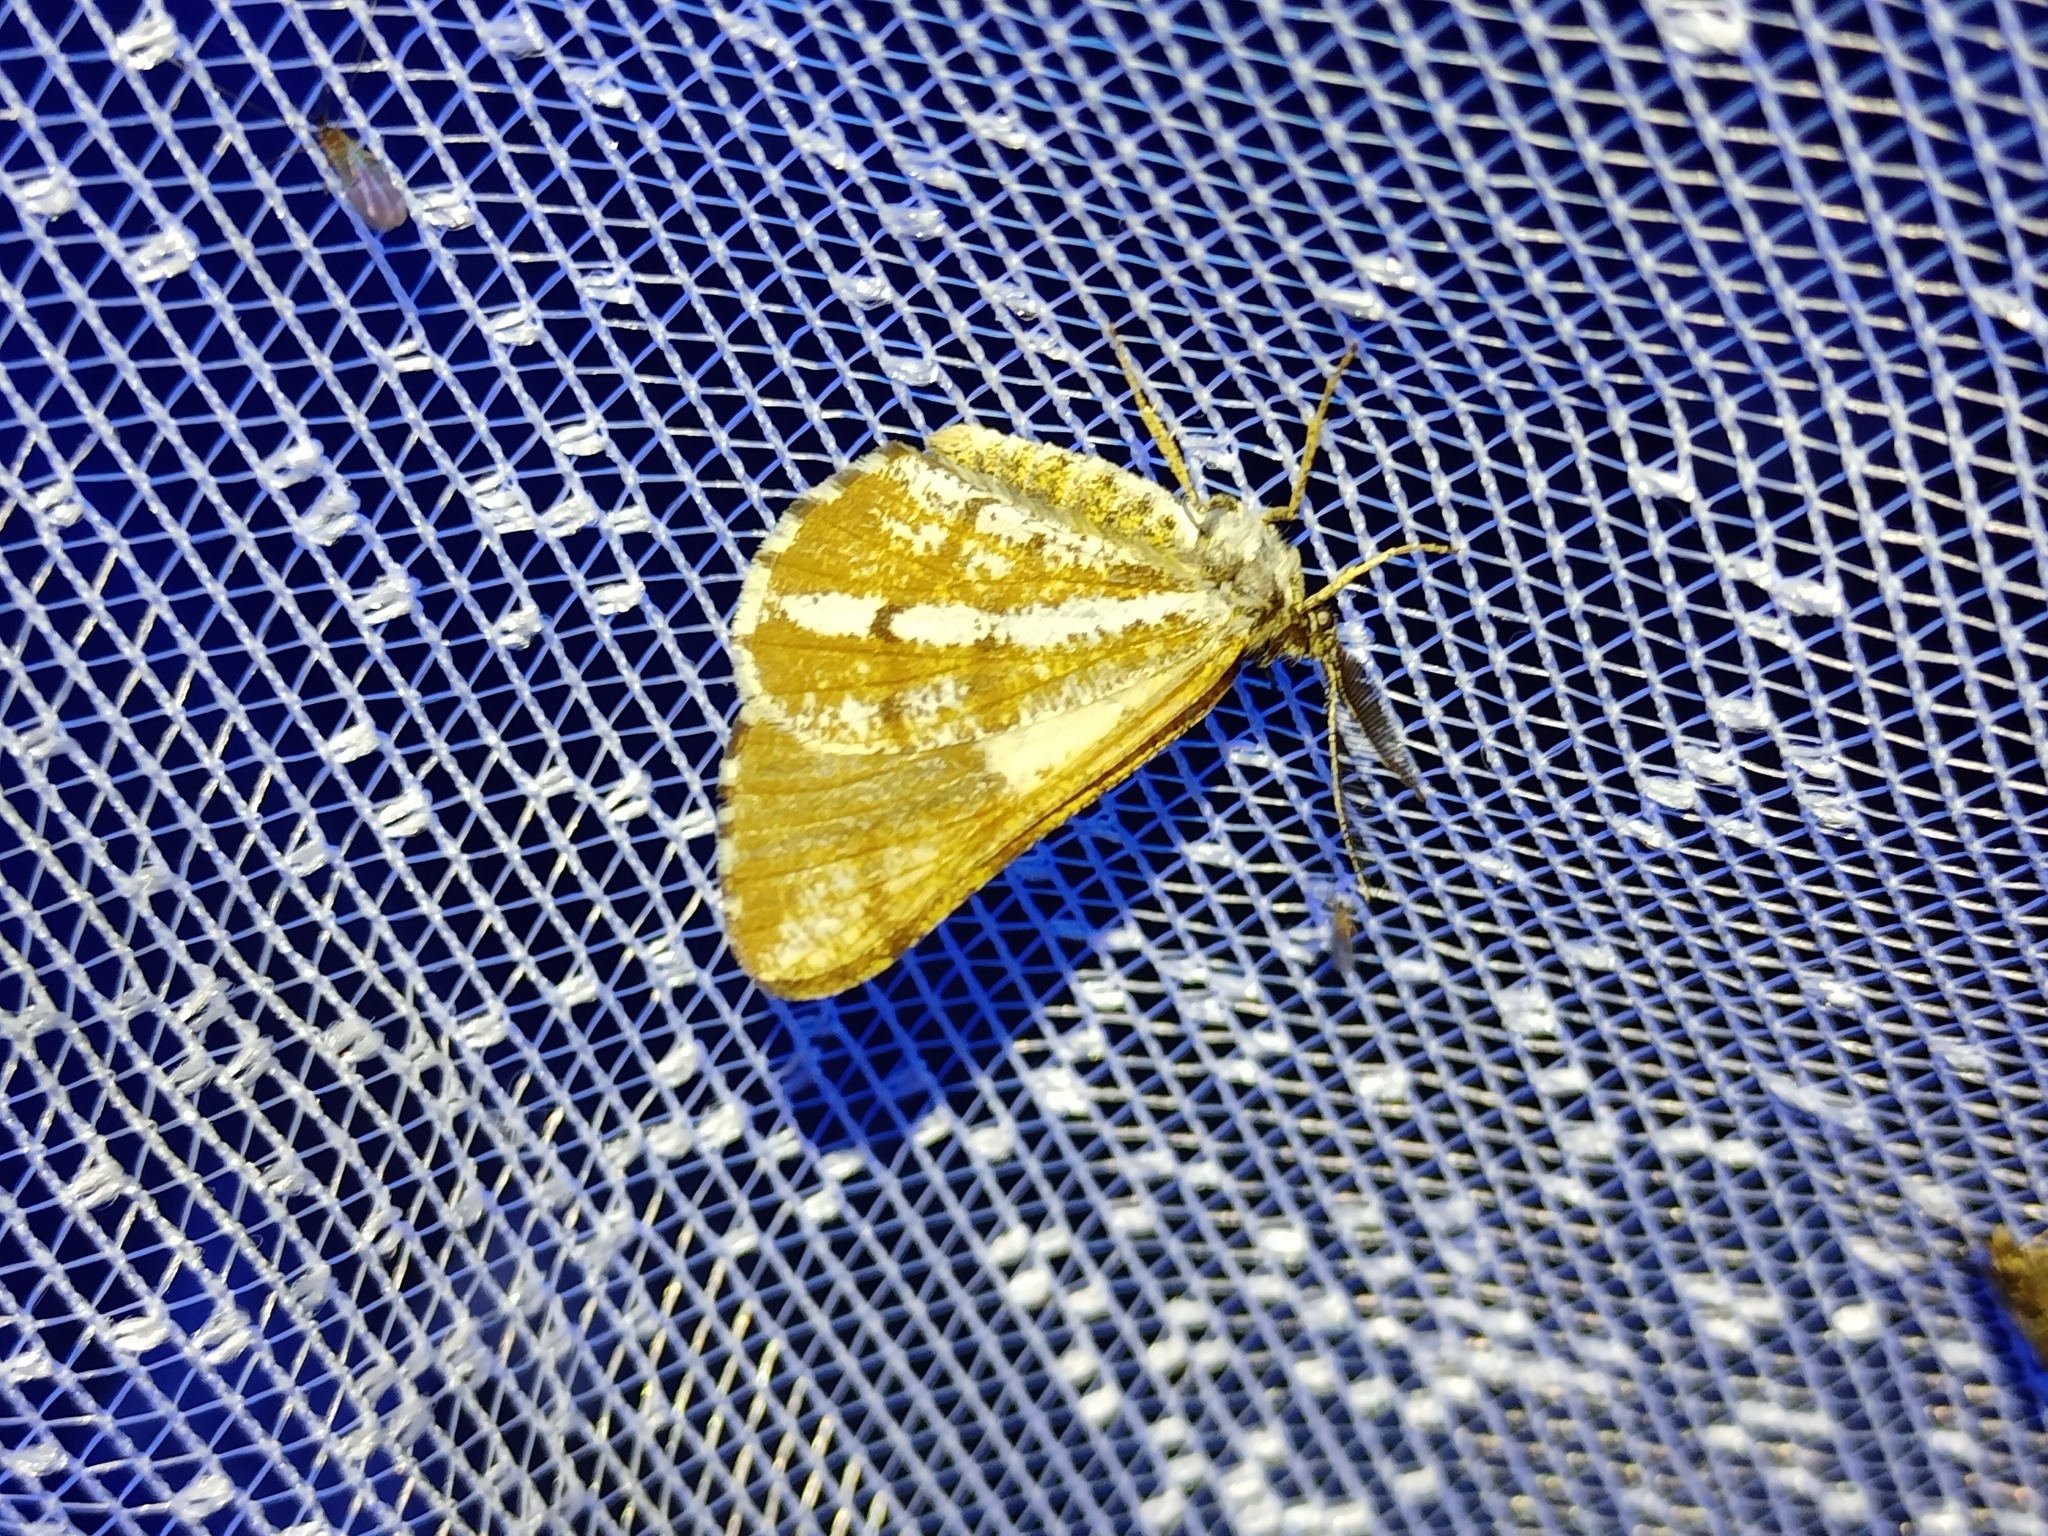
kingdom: Animalia
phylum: Arthropoda
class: Insecta
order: Lepidoptera
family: Geometridae
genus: Bupalus
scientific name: Bupalus piniaria
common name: Bordered white
